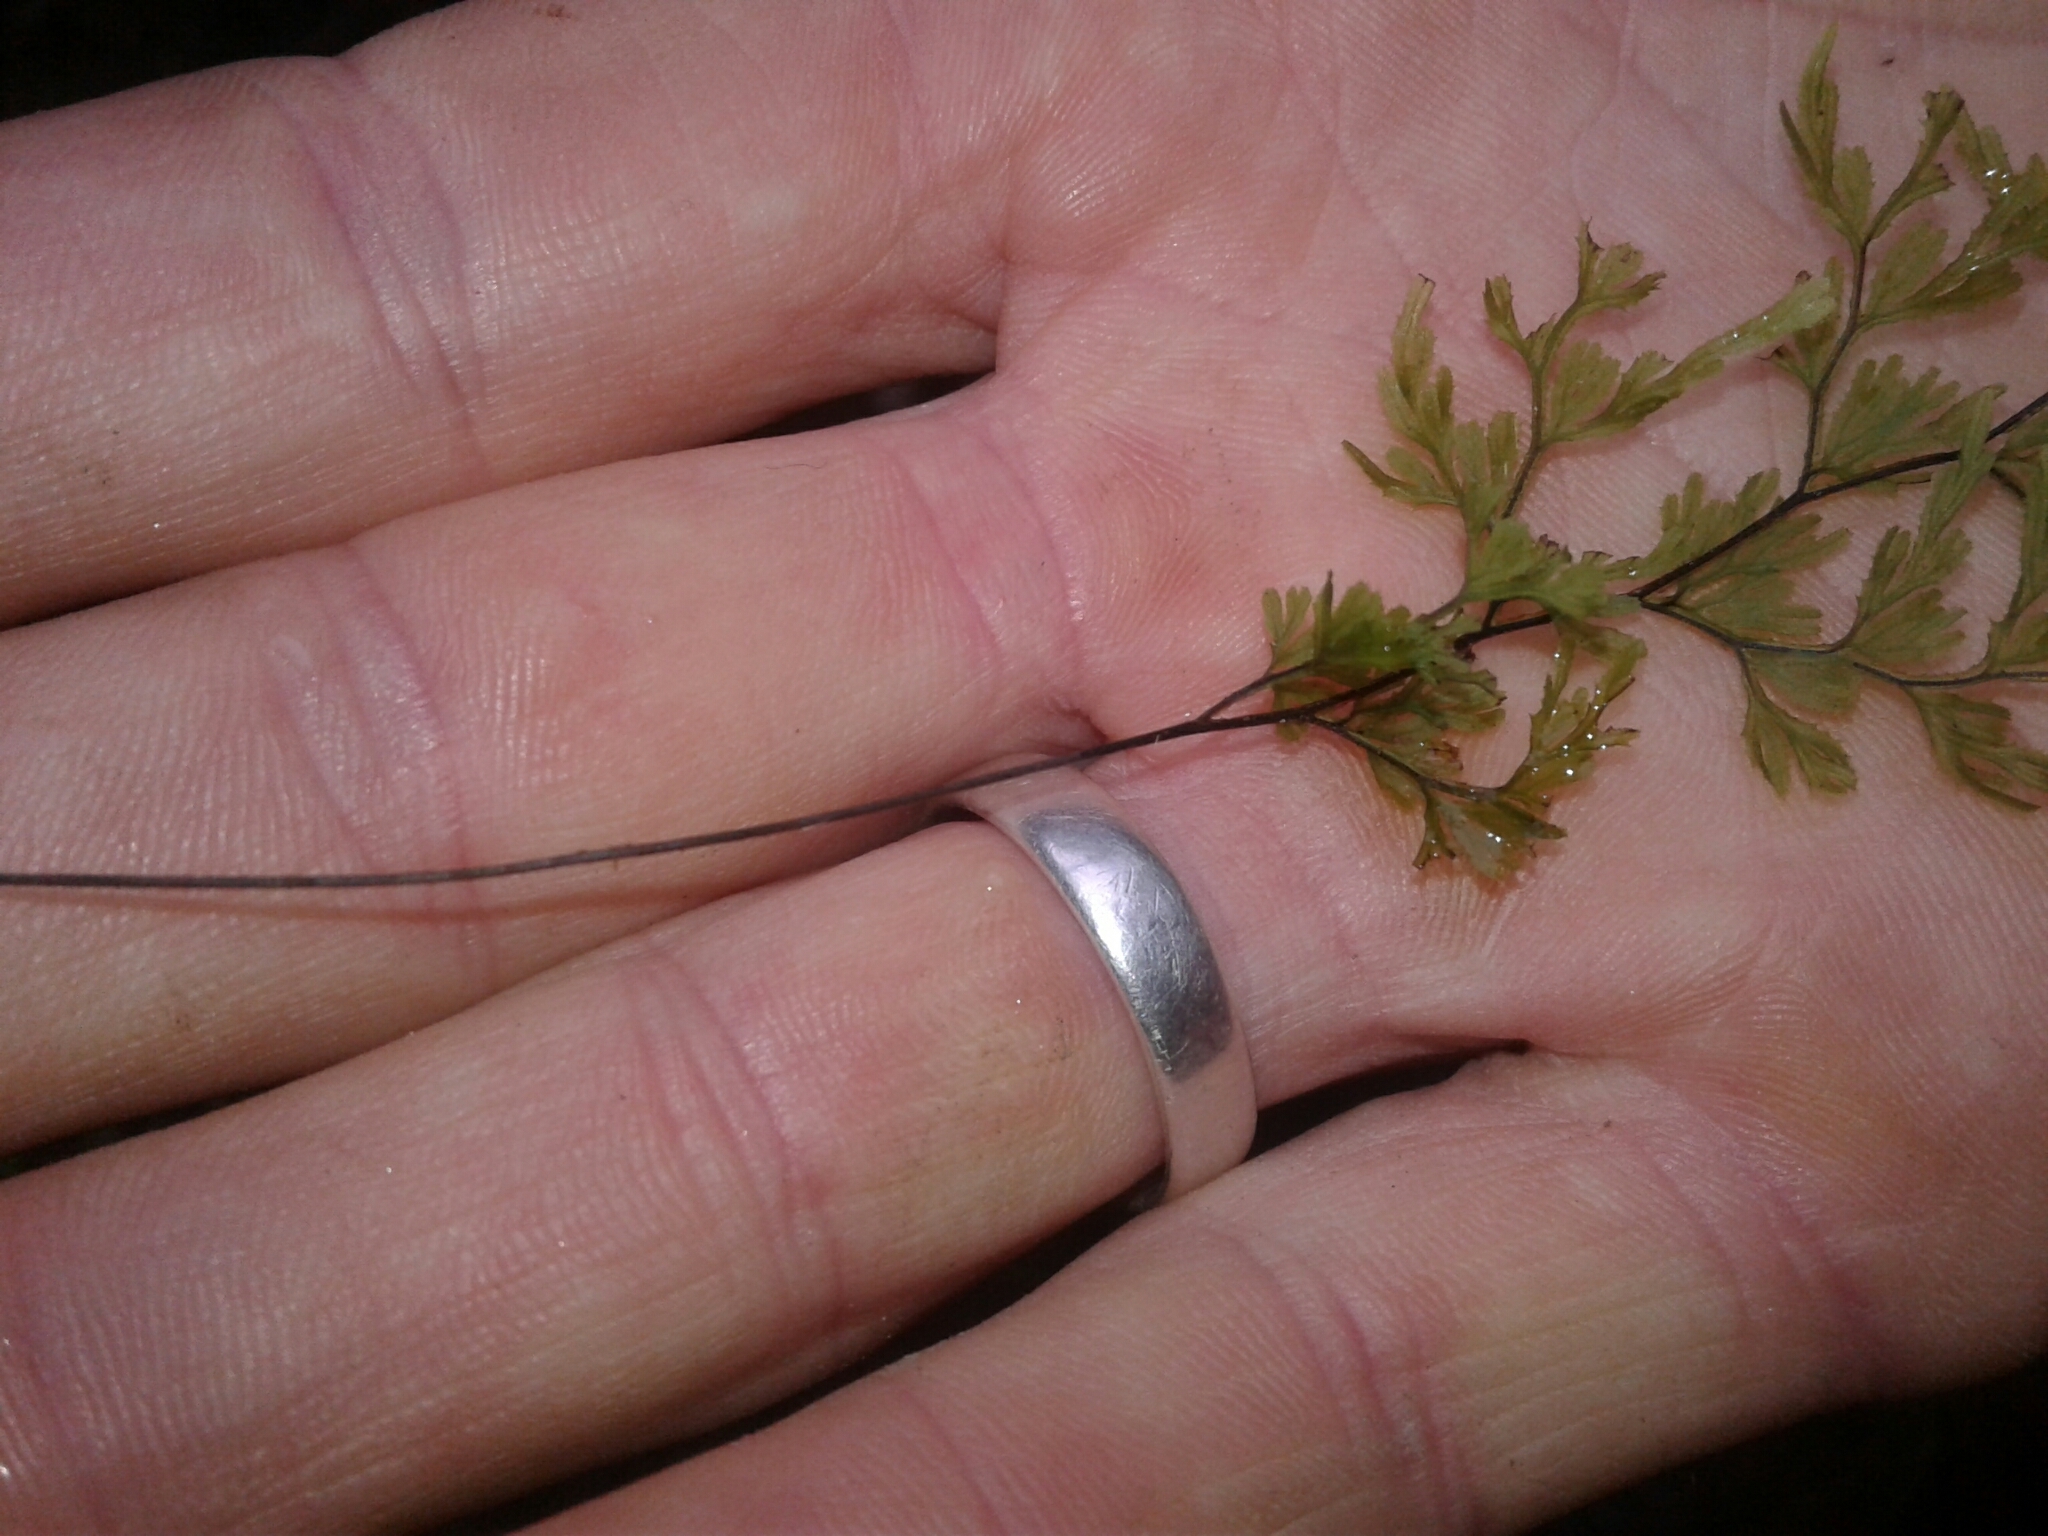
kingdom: Plantae
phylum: Tracheophyta
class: Polypodiopsida
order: Hymenophyllales
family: Hymenophyllaceae
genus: Hymenophyllum
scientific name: Hymenophyllum multifidum
